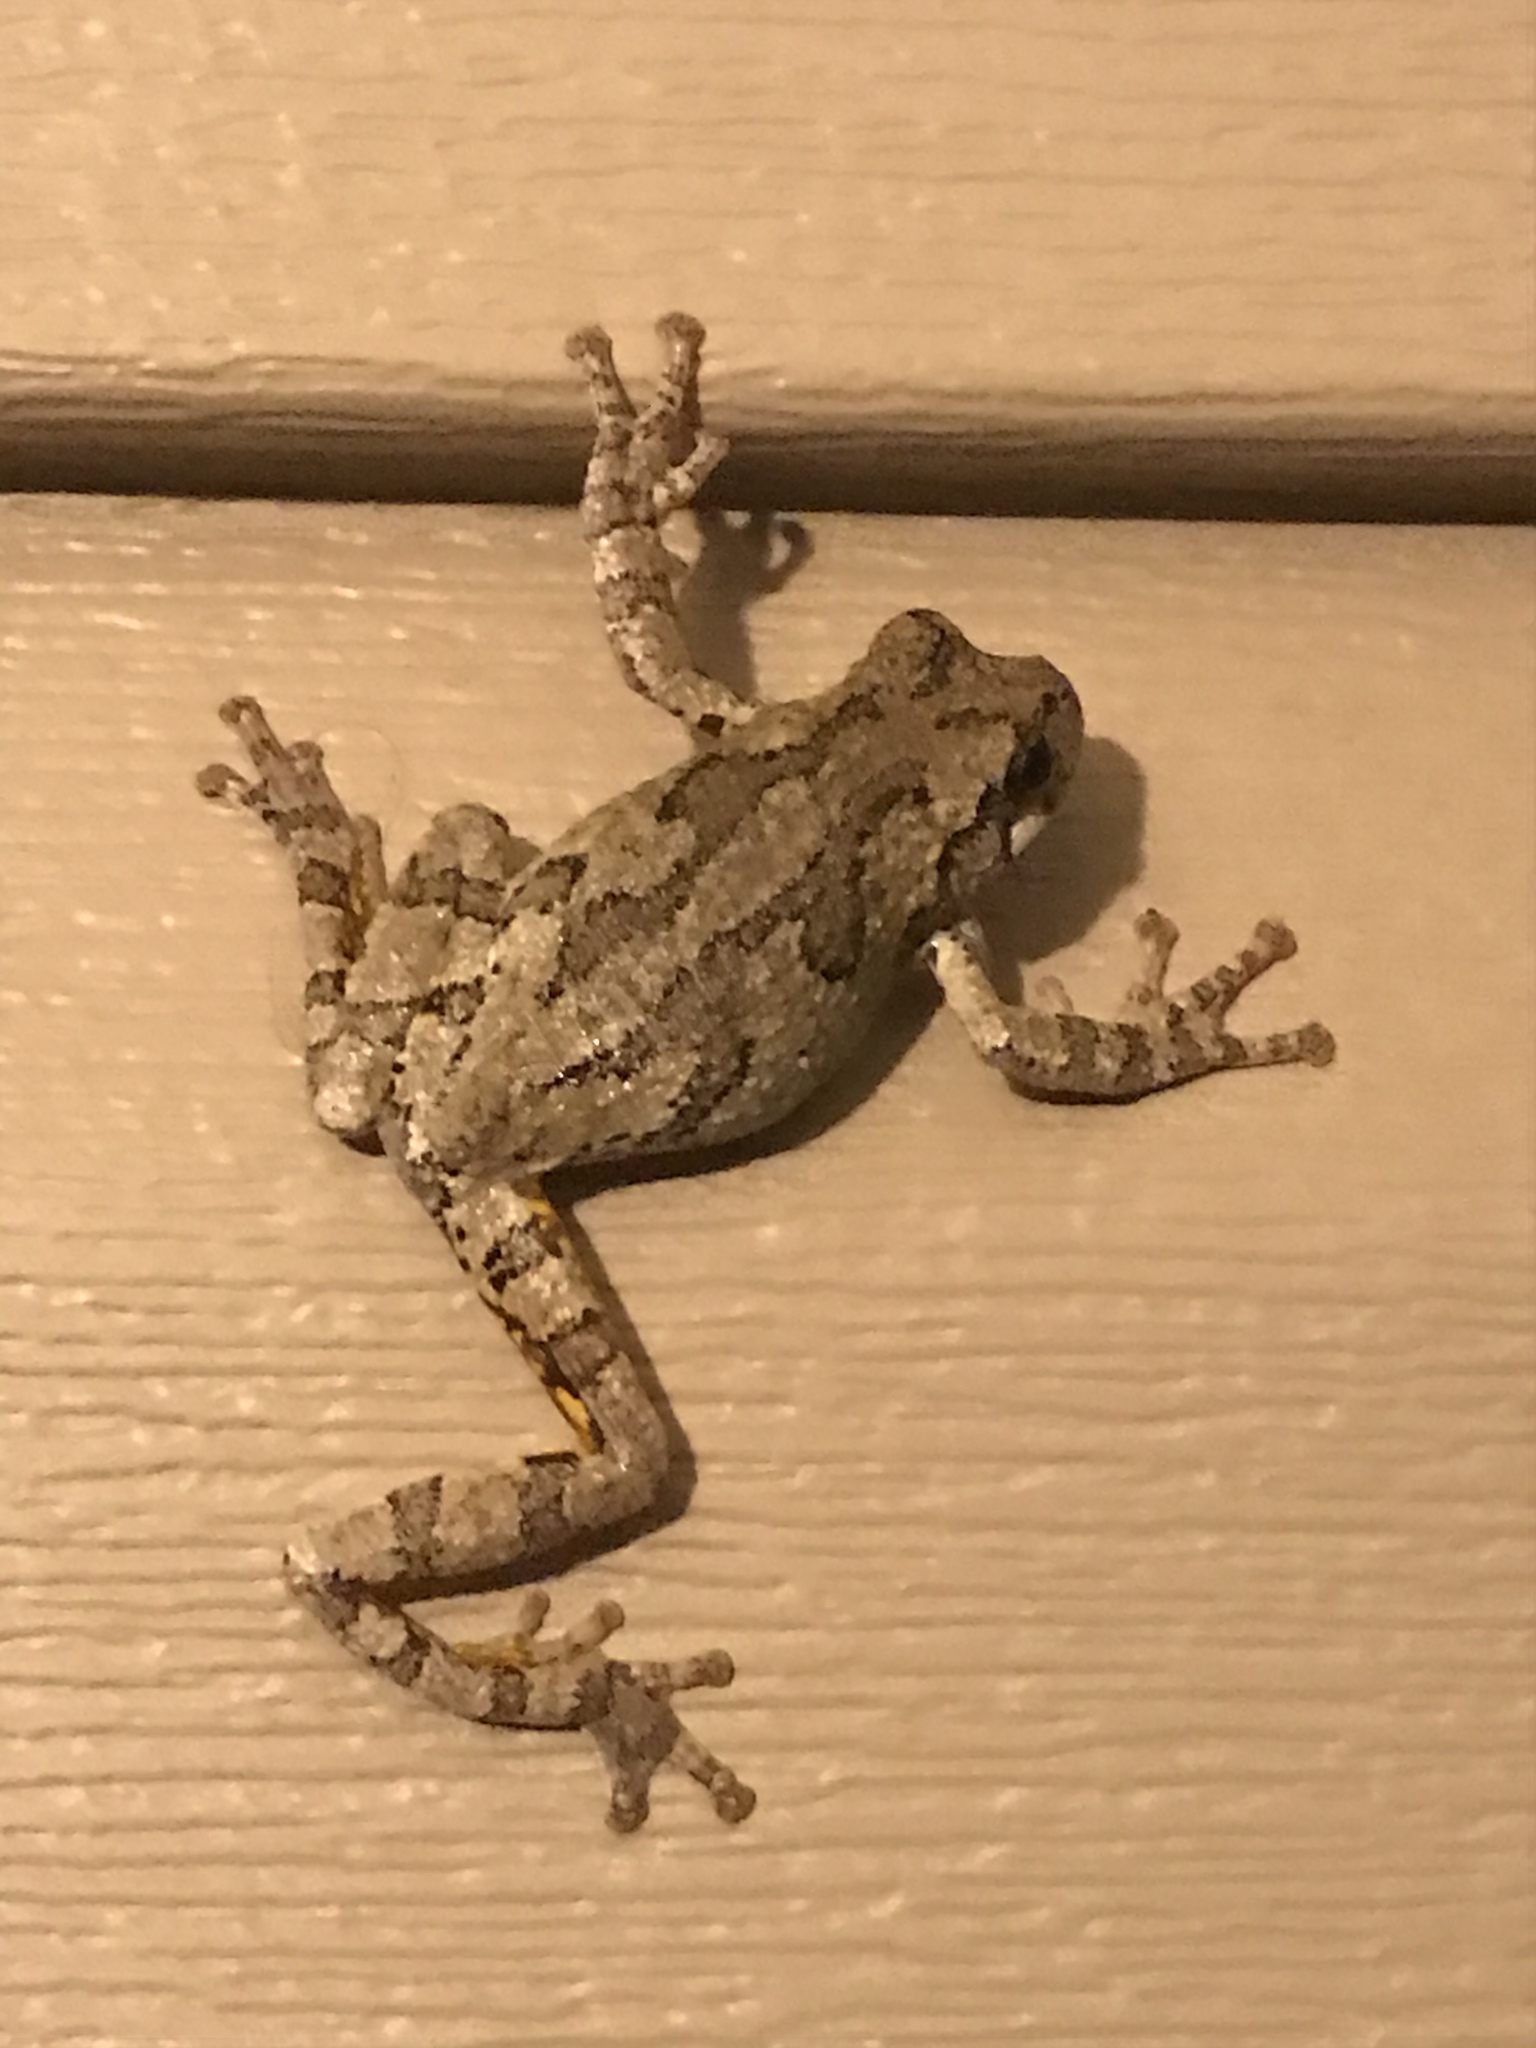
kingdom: Animalia
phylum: Chordata
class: Amphibia
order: Anura
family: Hylidae
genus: Dryophytes
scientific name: Dryophytes chrysoscelis
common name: Cope's gray treefrog
